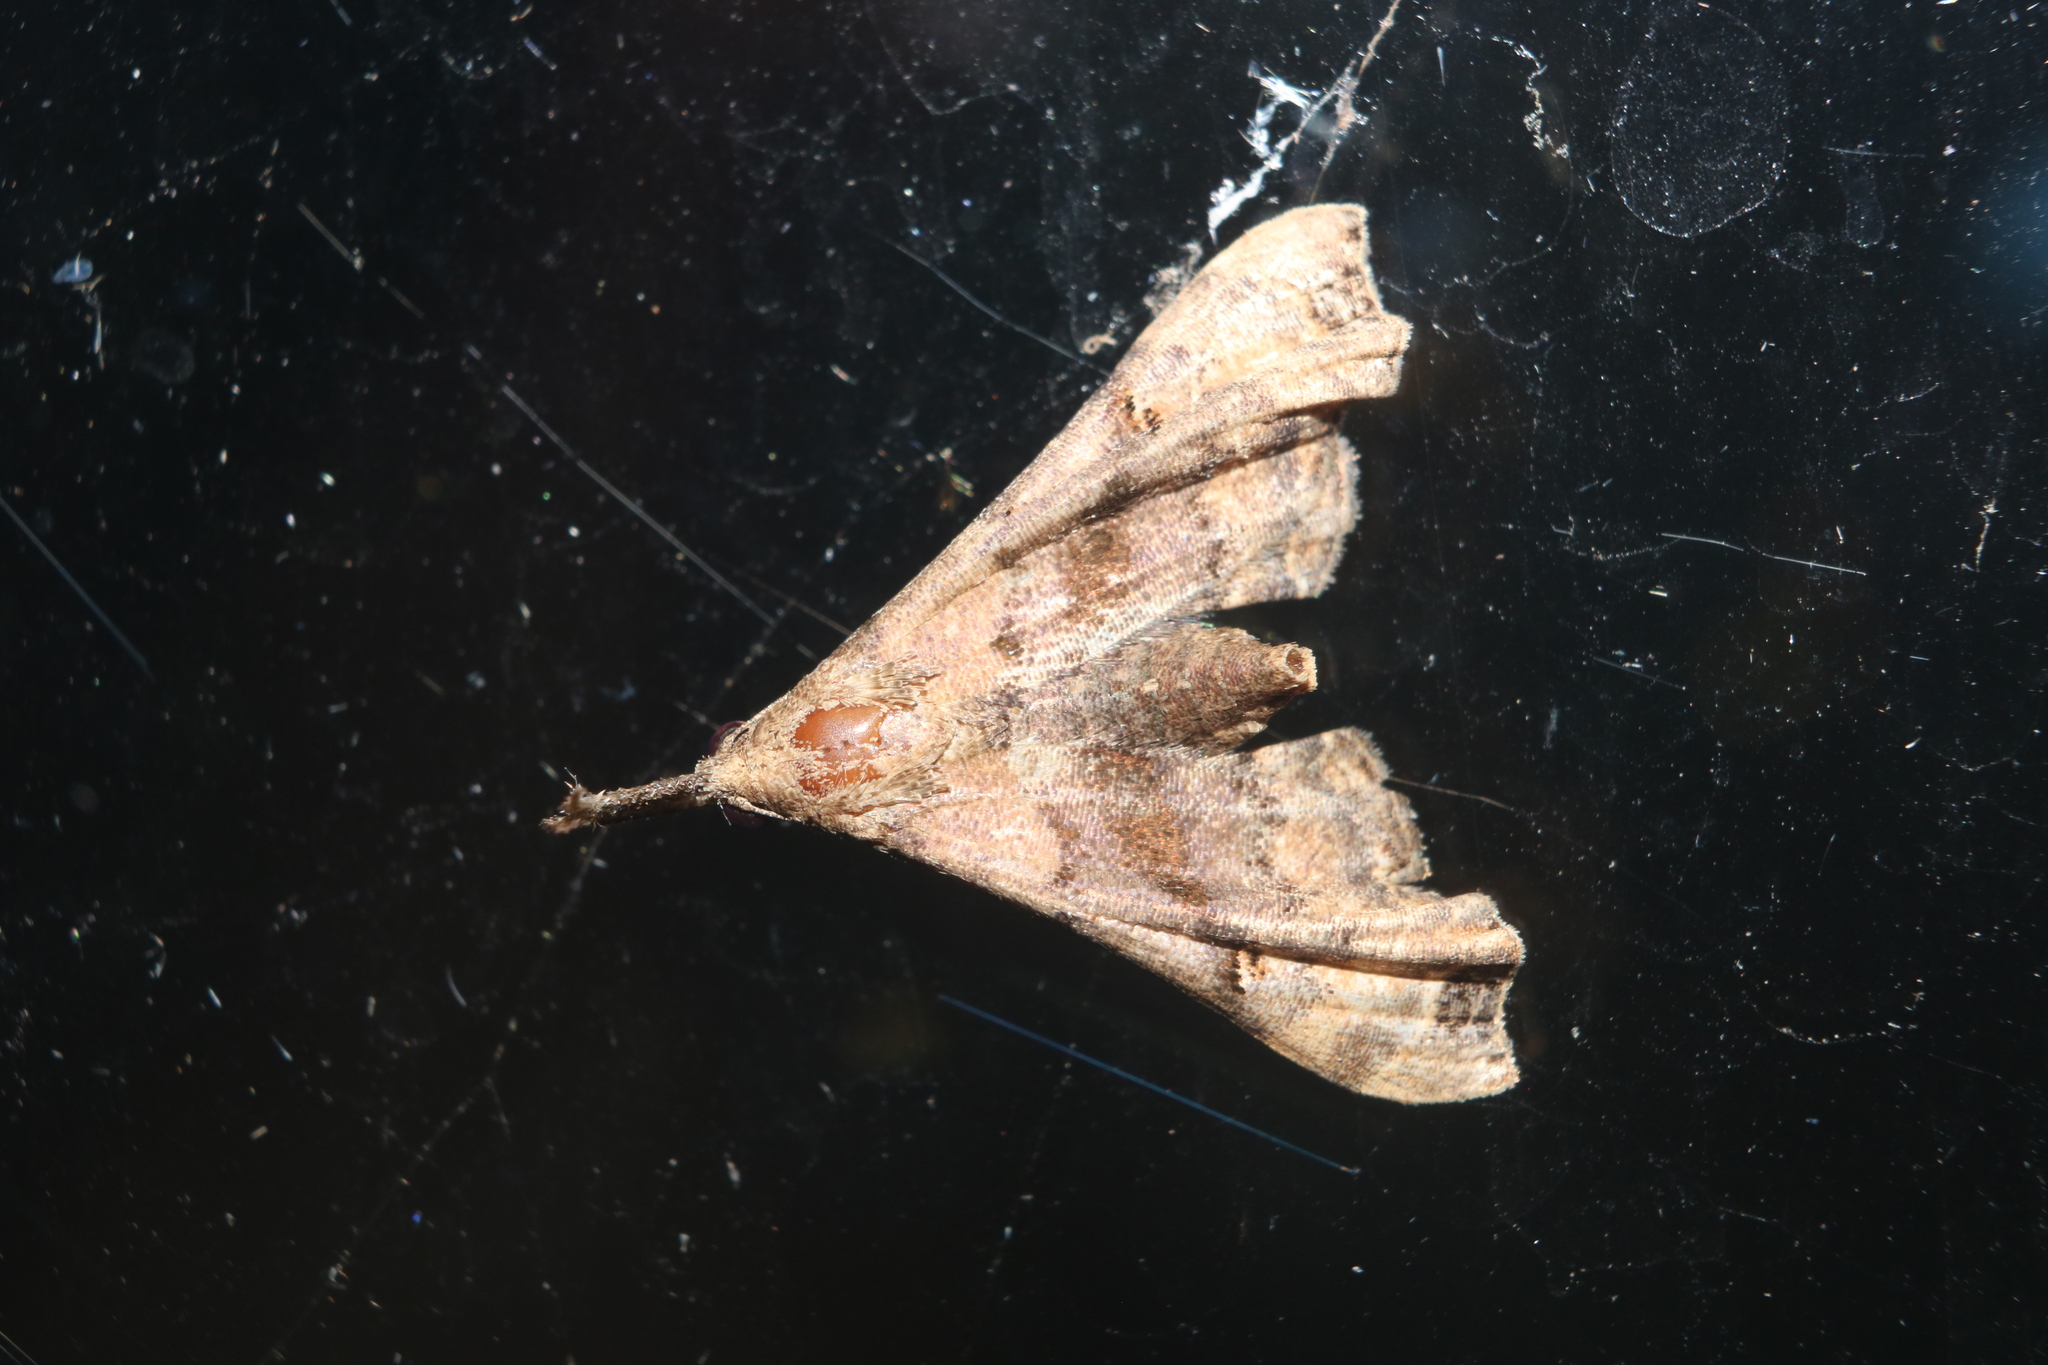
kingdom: Animalia
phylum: Arthropoda
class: Insecta
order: Lepidoptera
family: Erebidae
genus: Palthis
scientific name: Palthis asopialis
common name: Faint-spotted palthis moth
